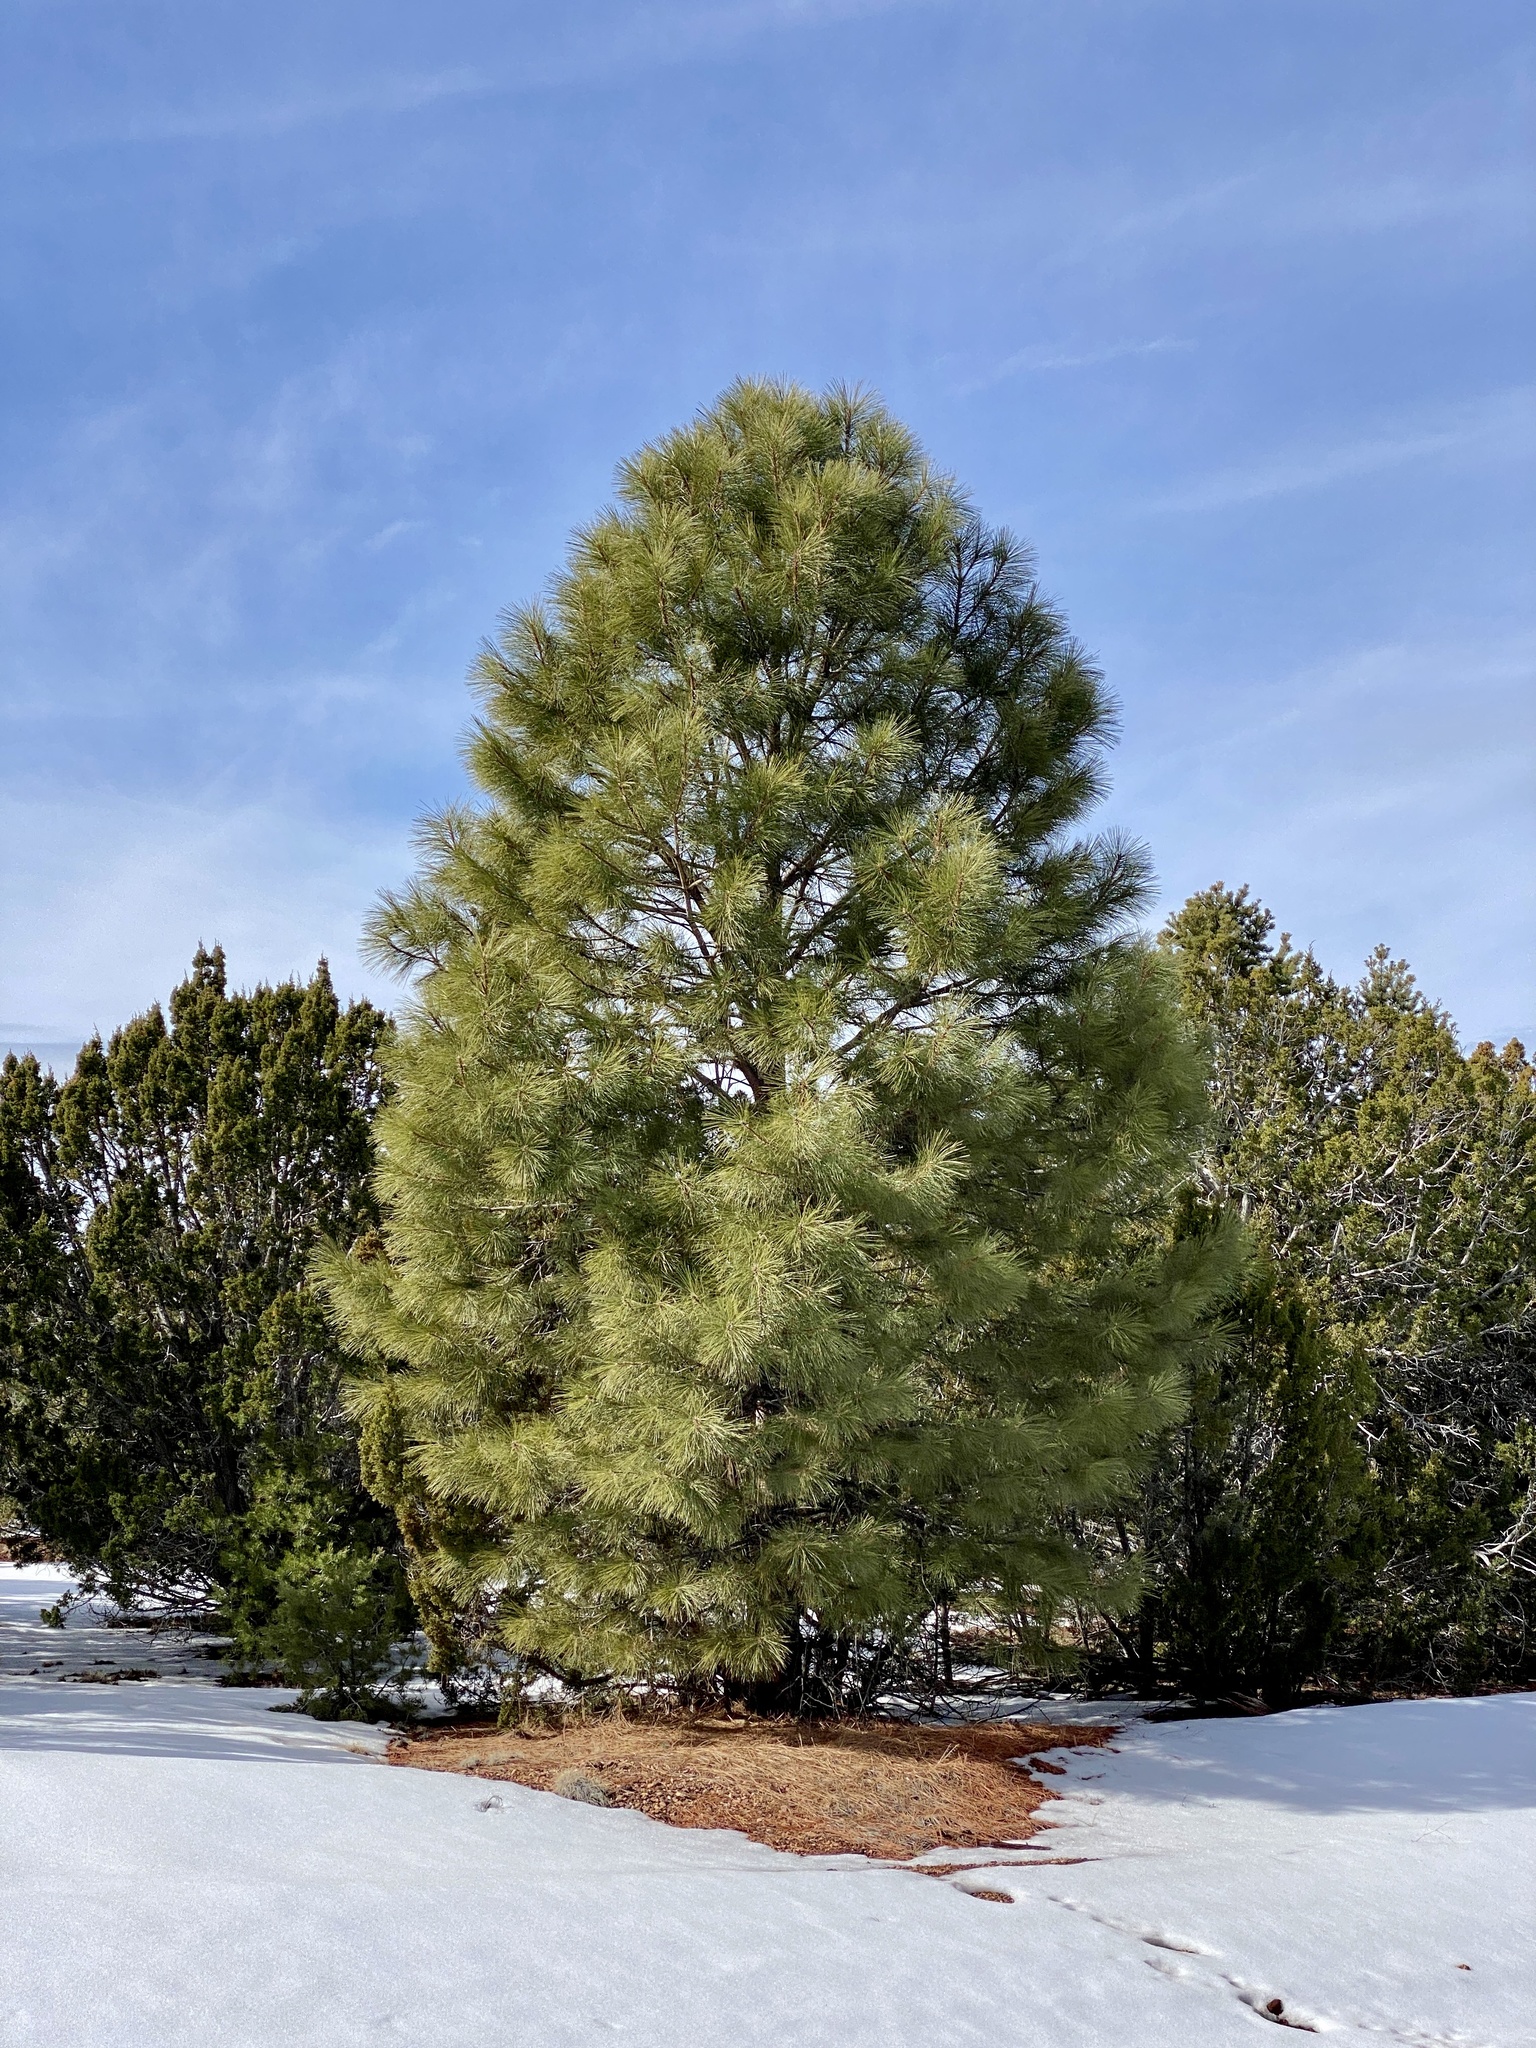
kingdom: Plantae
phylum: Tracheophyta
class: Pinopsida
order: Pinales
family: Pinaceae
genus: Pinus
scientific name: Pinus ponderosa
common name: Western yellow-pine
